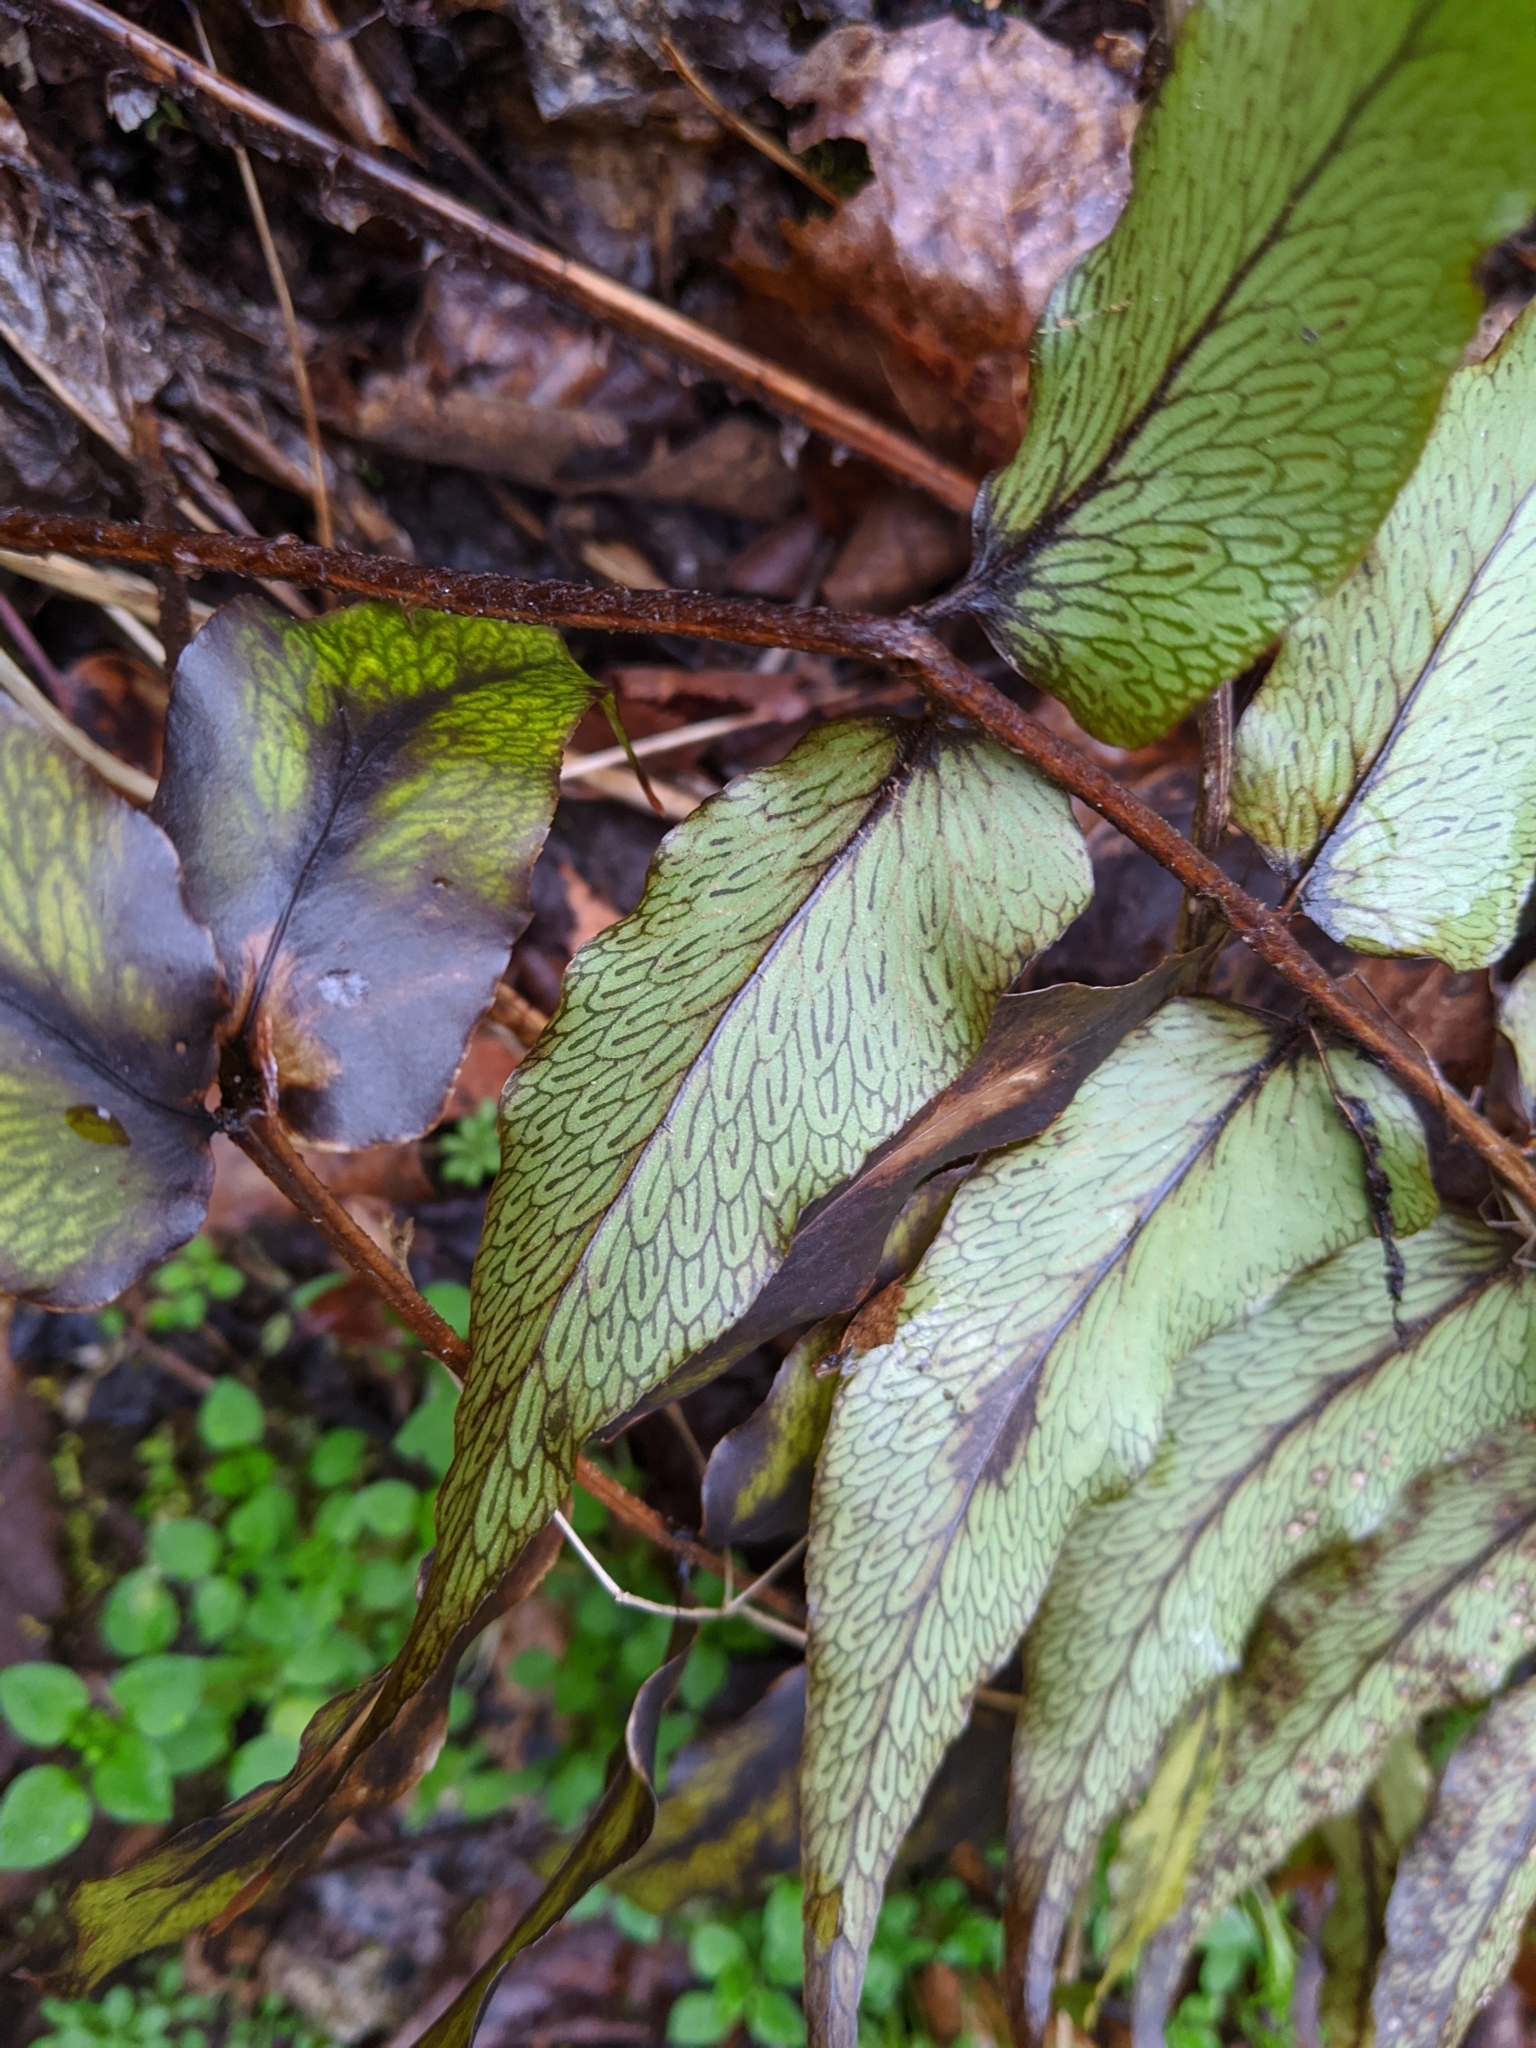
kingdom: Plantae
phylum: Tracheophyta
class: Polypodiopsida
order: Polypodiales
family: Dryopteridaceae
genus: Cyrtomium
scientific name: Cyrtomium fortunei
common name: Asian netvein hollyfern
